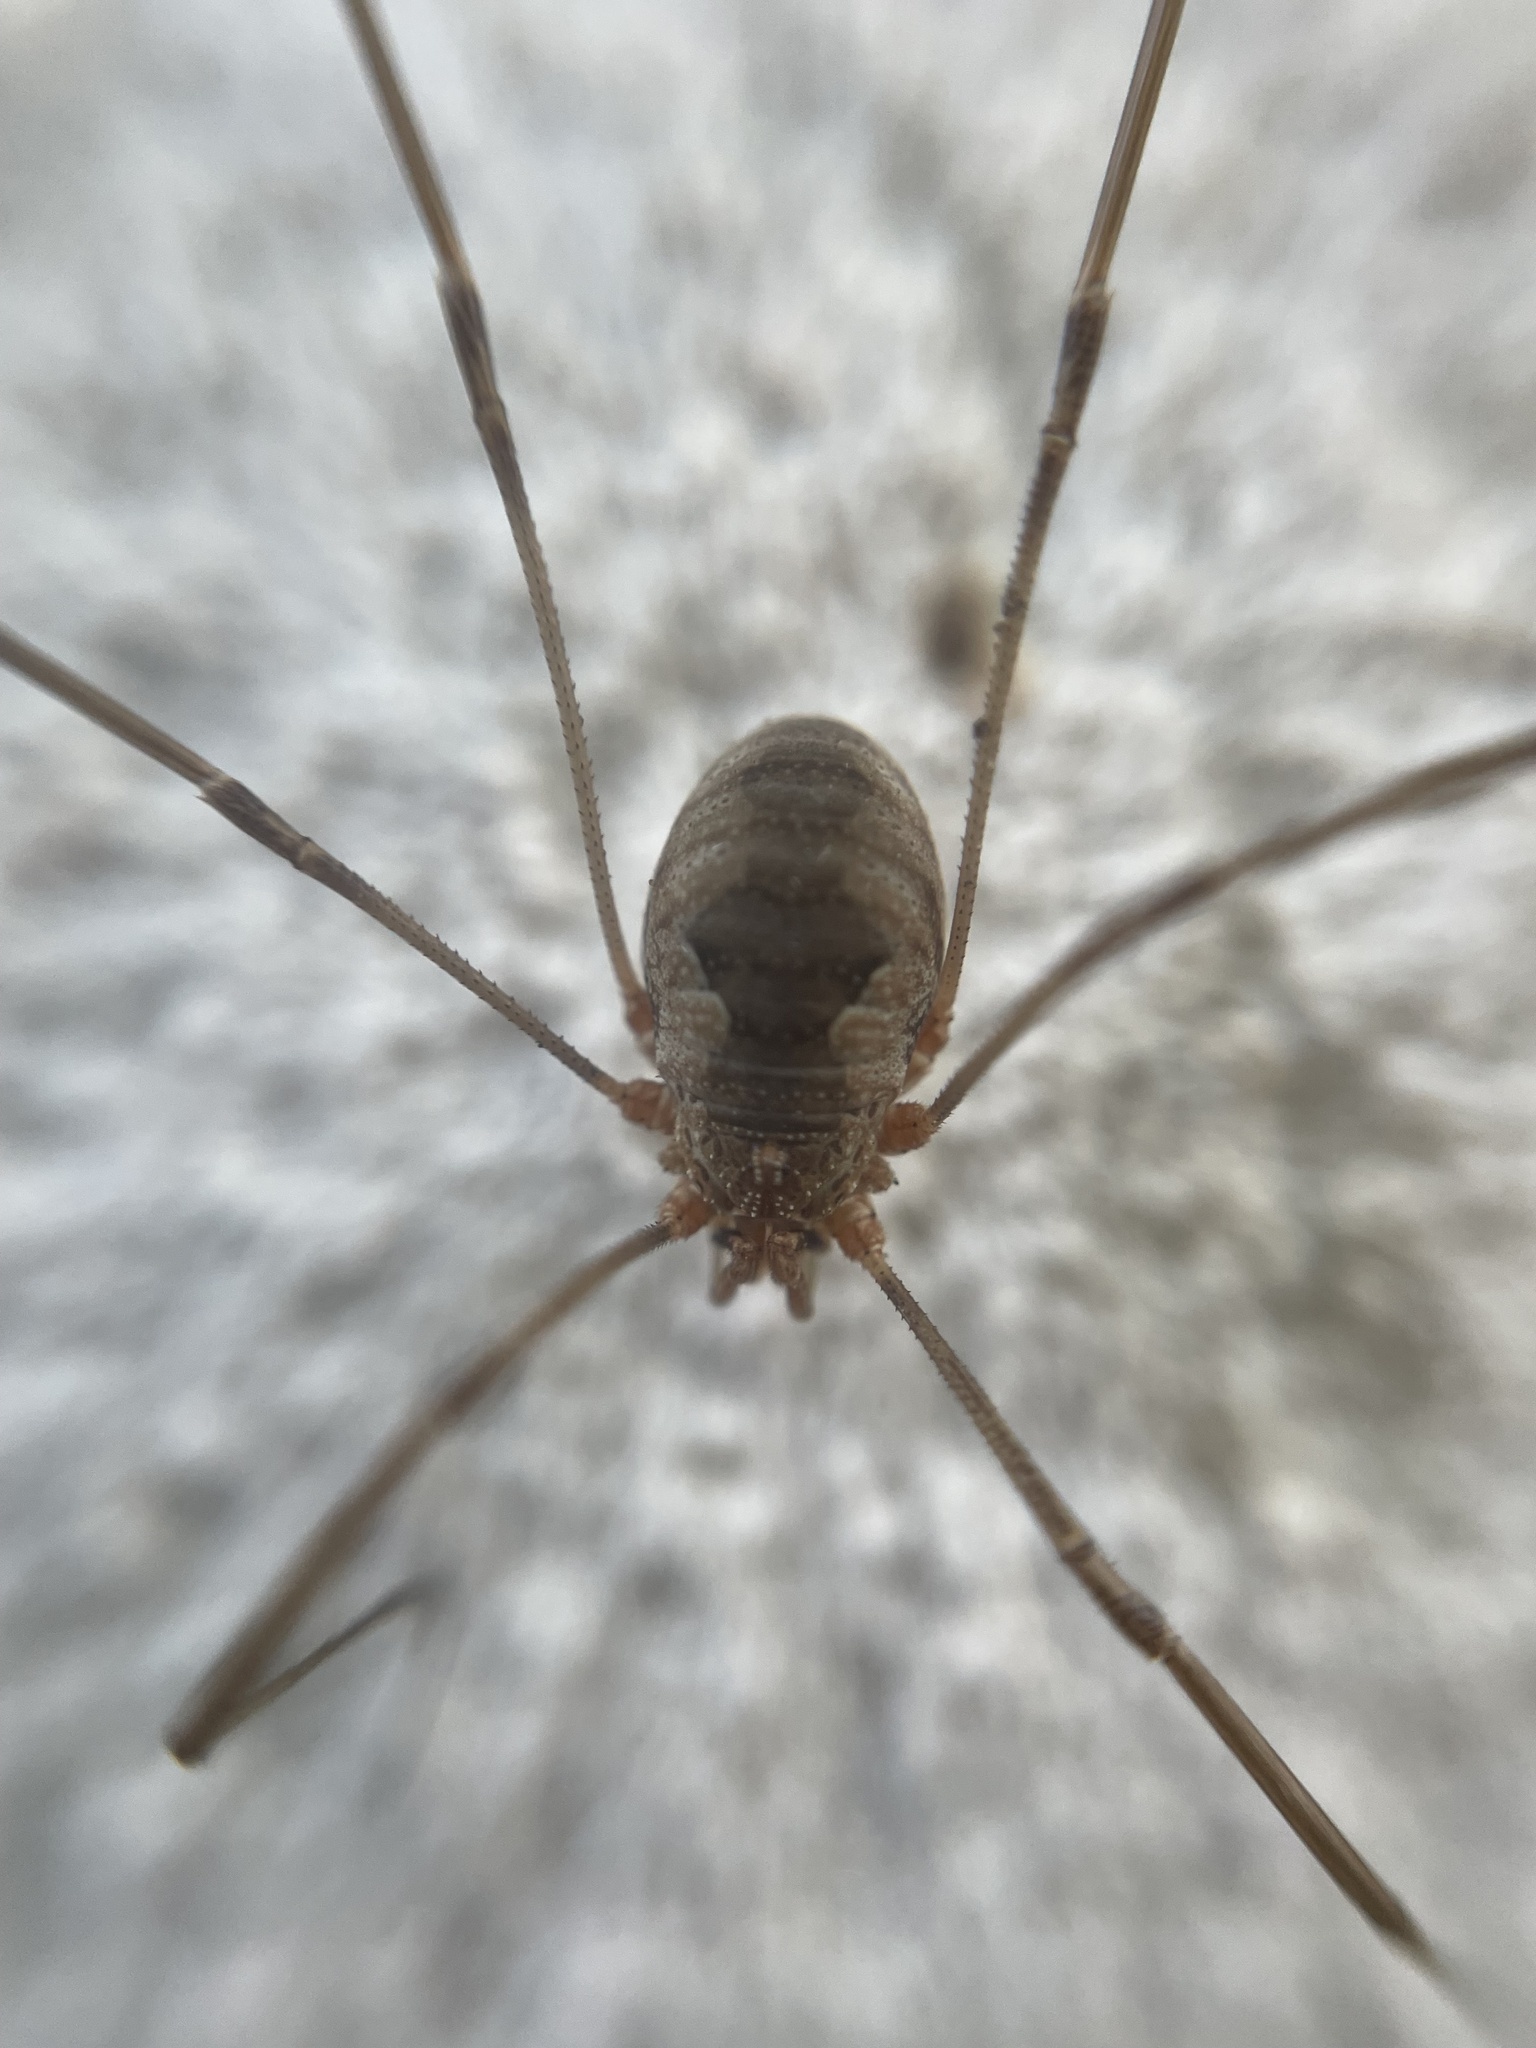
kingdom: Animalia
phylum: Arthropoda
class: Arachnida
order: Opiliones
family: Phalangiidae
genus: Phalangium
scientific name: Phalangium opilio
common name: Daddy longleg
